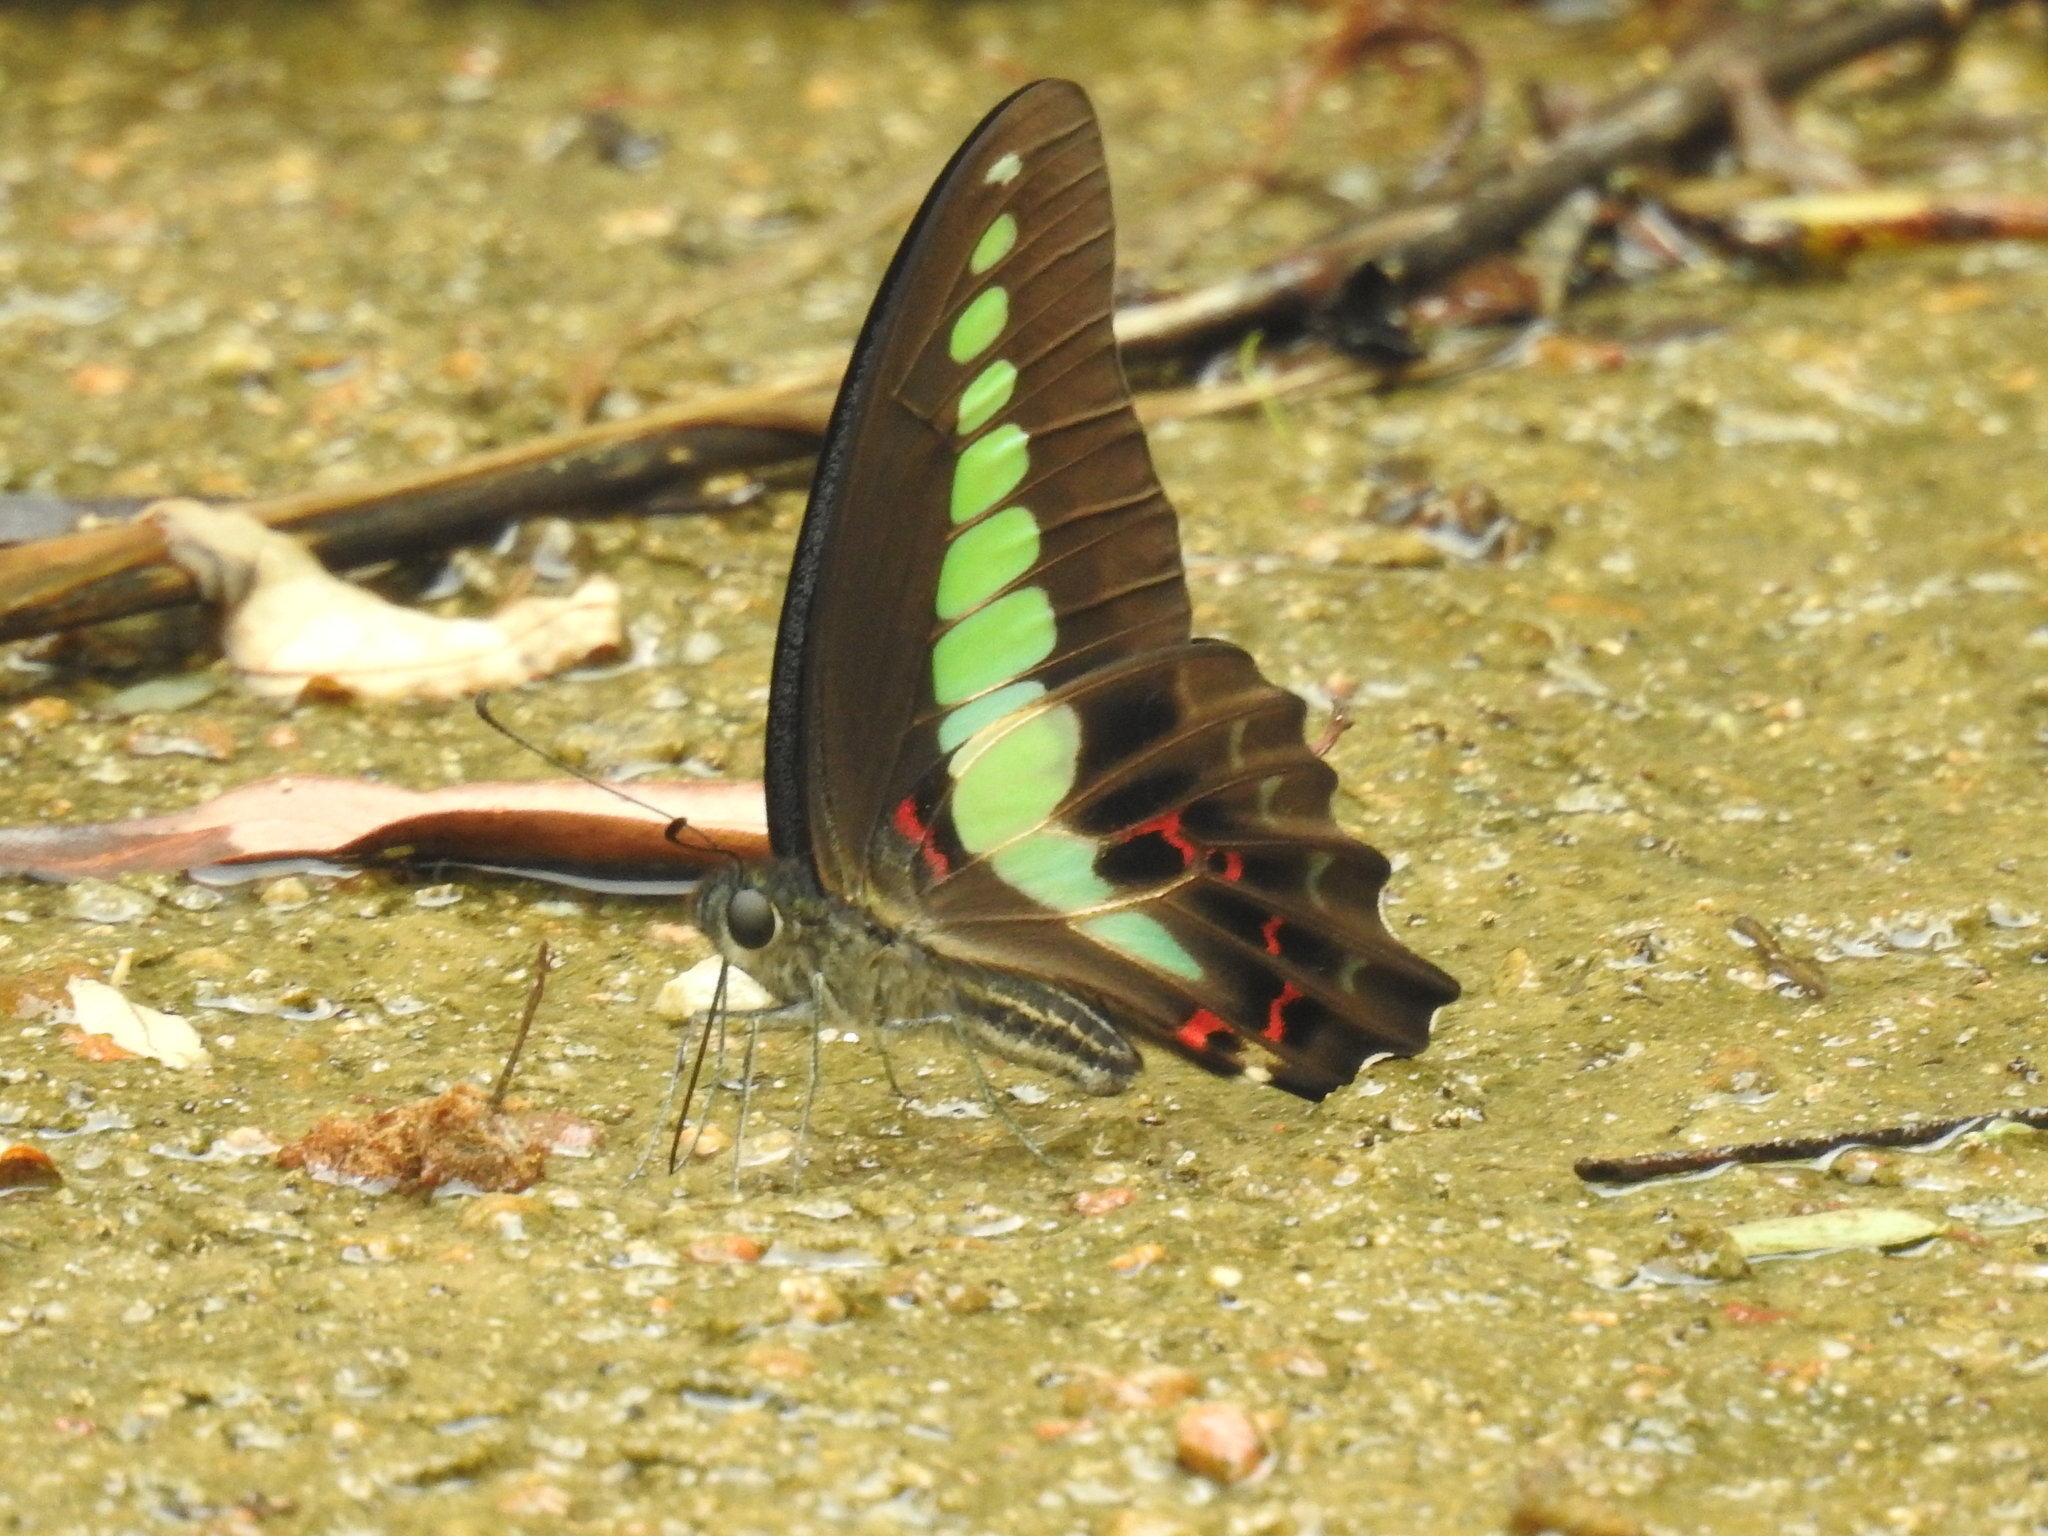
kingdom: Fungi
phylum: Ascomycota
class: Sordariomycetes
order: Microascales
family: Microascaceae
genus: Graphium
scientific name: Graphium sarpedon
